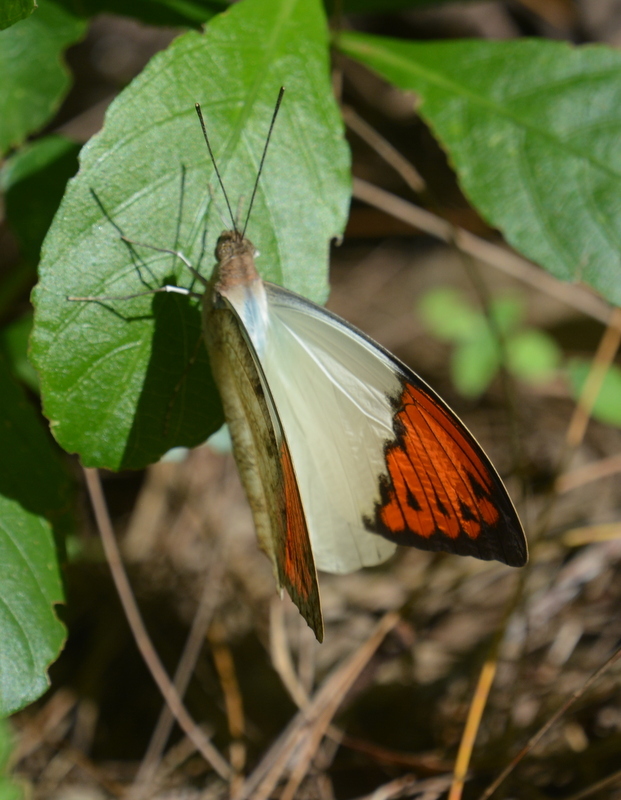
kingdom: Animalia
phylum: Arthropoda
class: Insecta
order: Lepidoptera
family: Pieridae
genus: Hebomoia
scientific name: Hebomoia glaucippe
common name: Great orange tip
